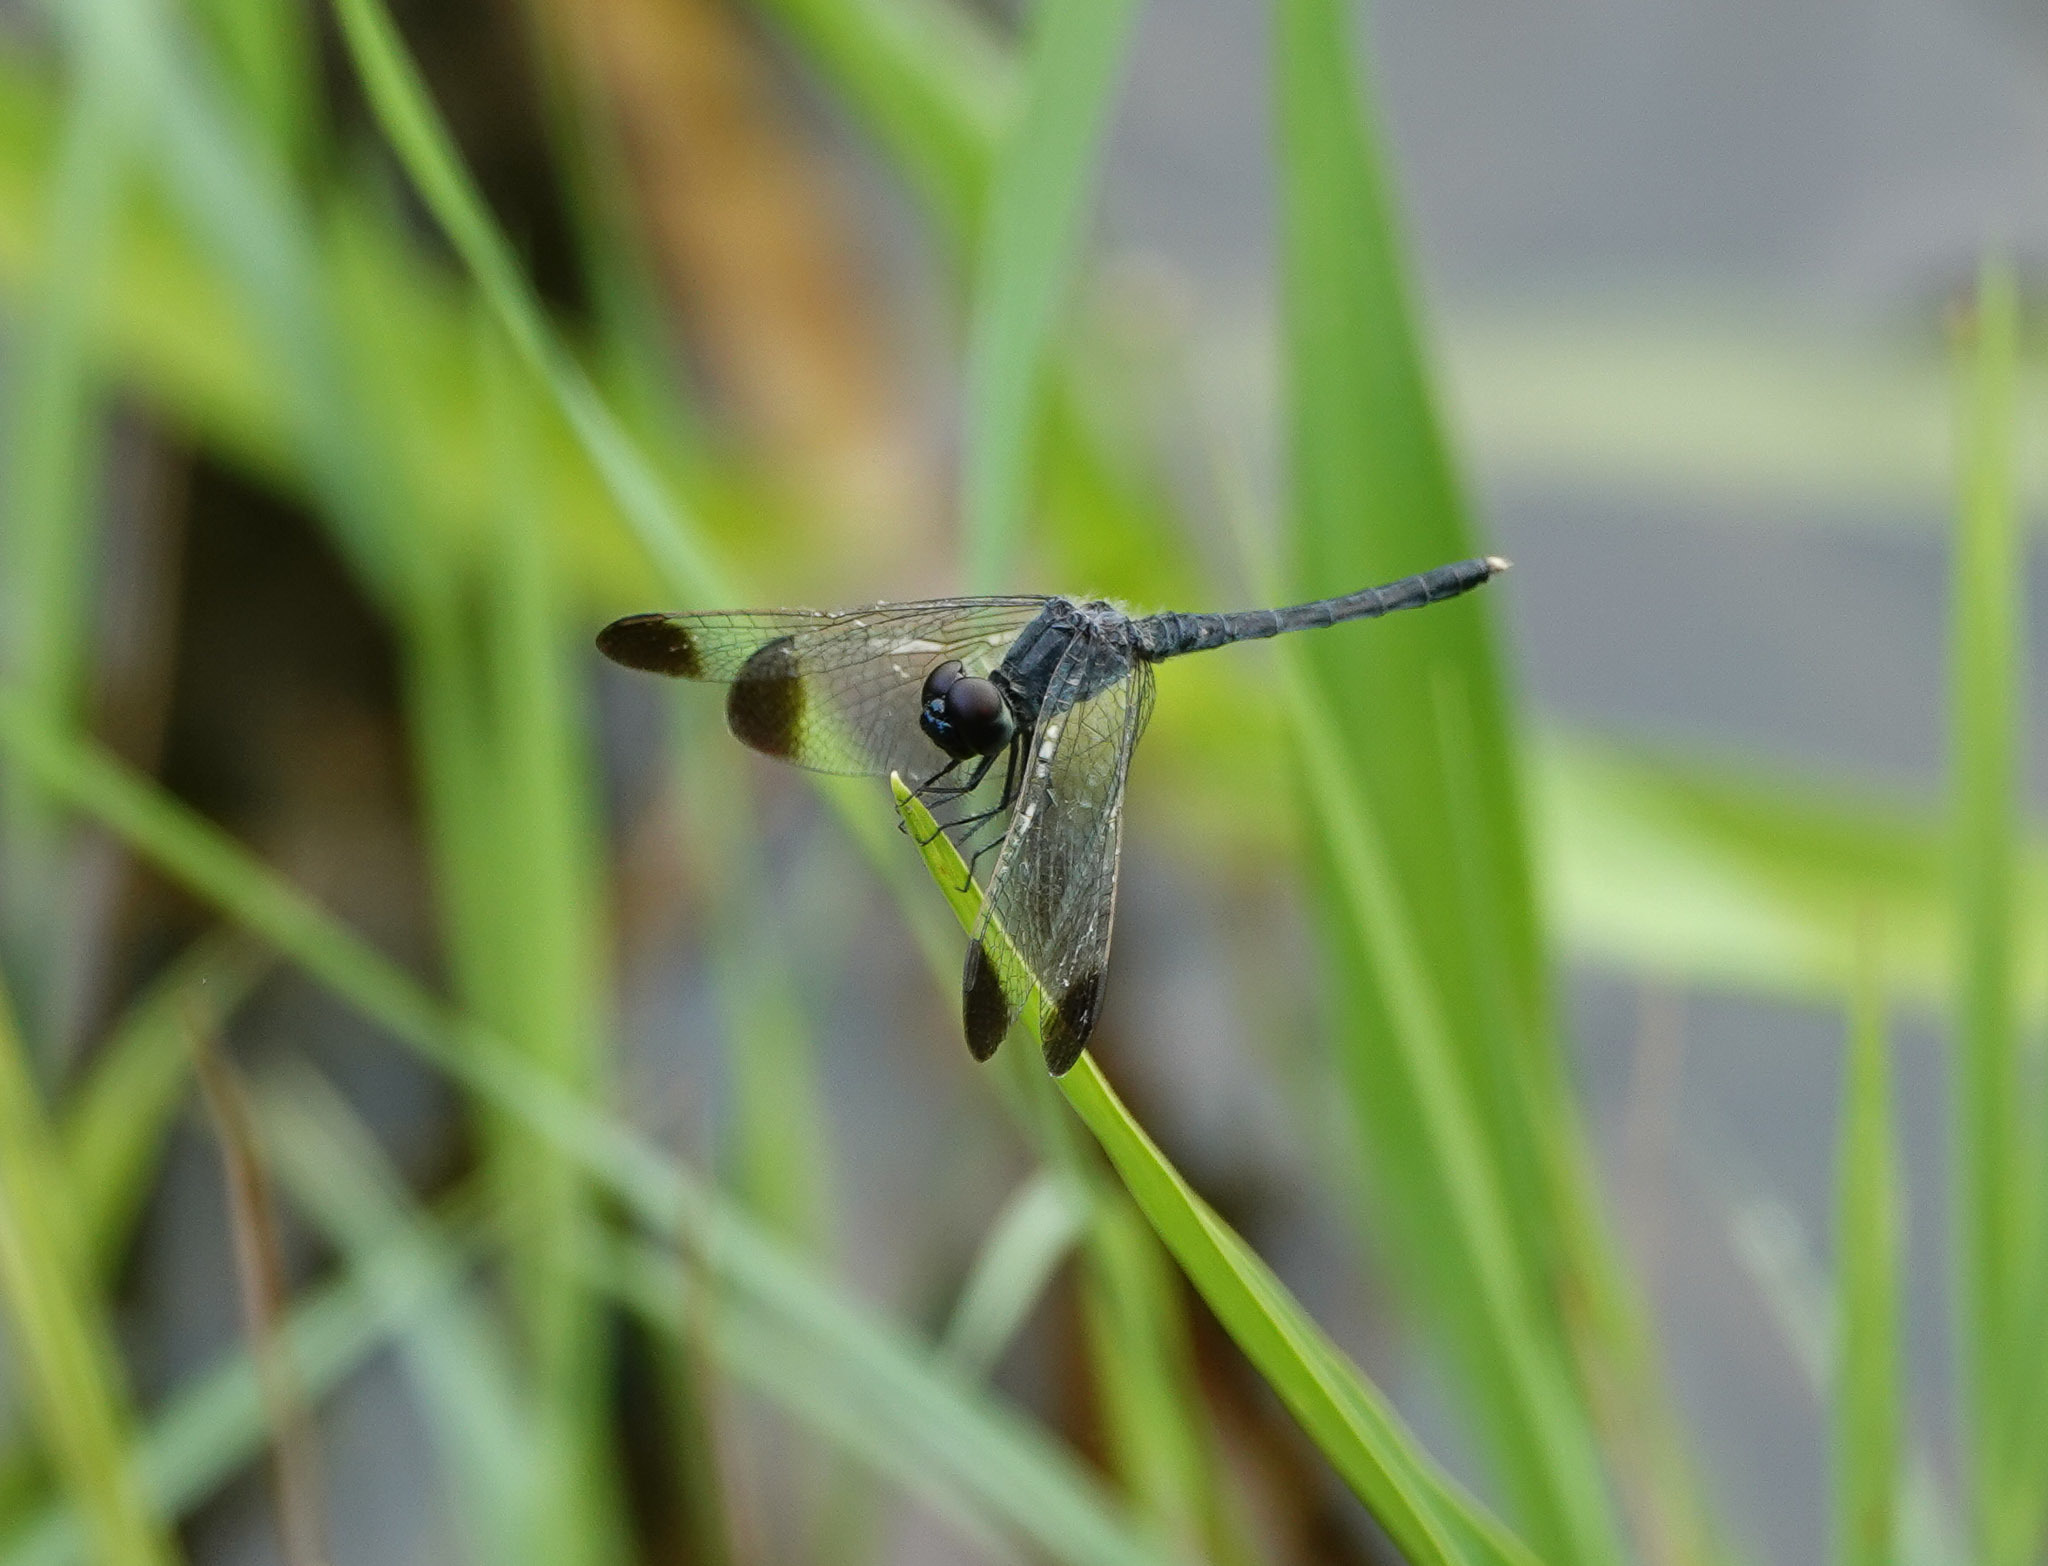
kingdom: Animalia
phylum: Arthropoda
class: Insecta
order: Odonata
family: Libellulidae
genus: Diplacodes
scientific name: Diplacodes nebulosa
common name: Black-tipped percher
